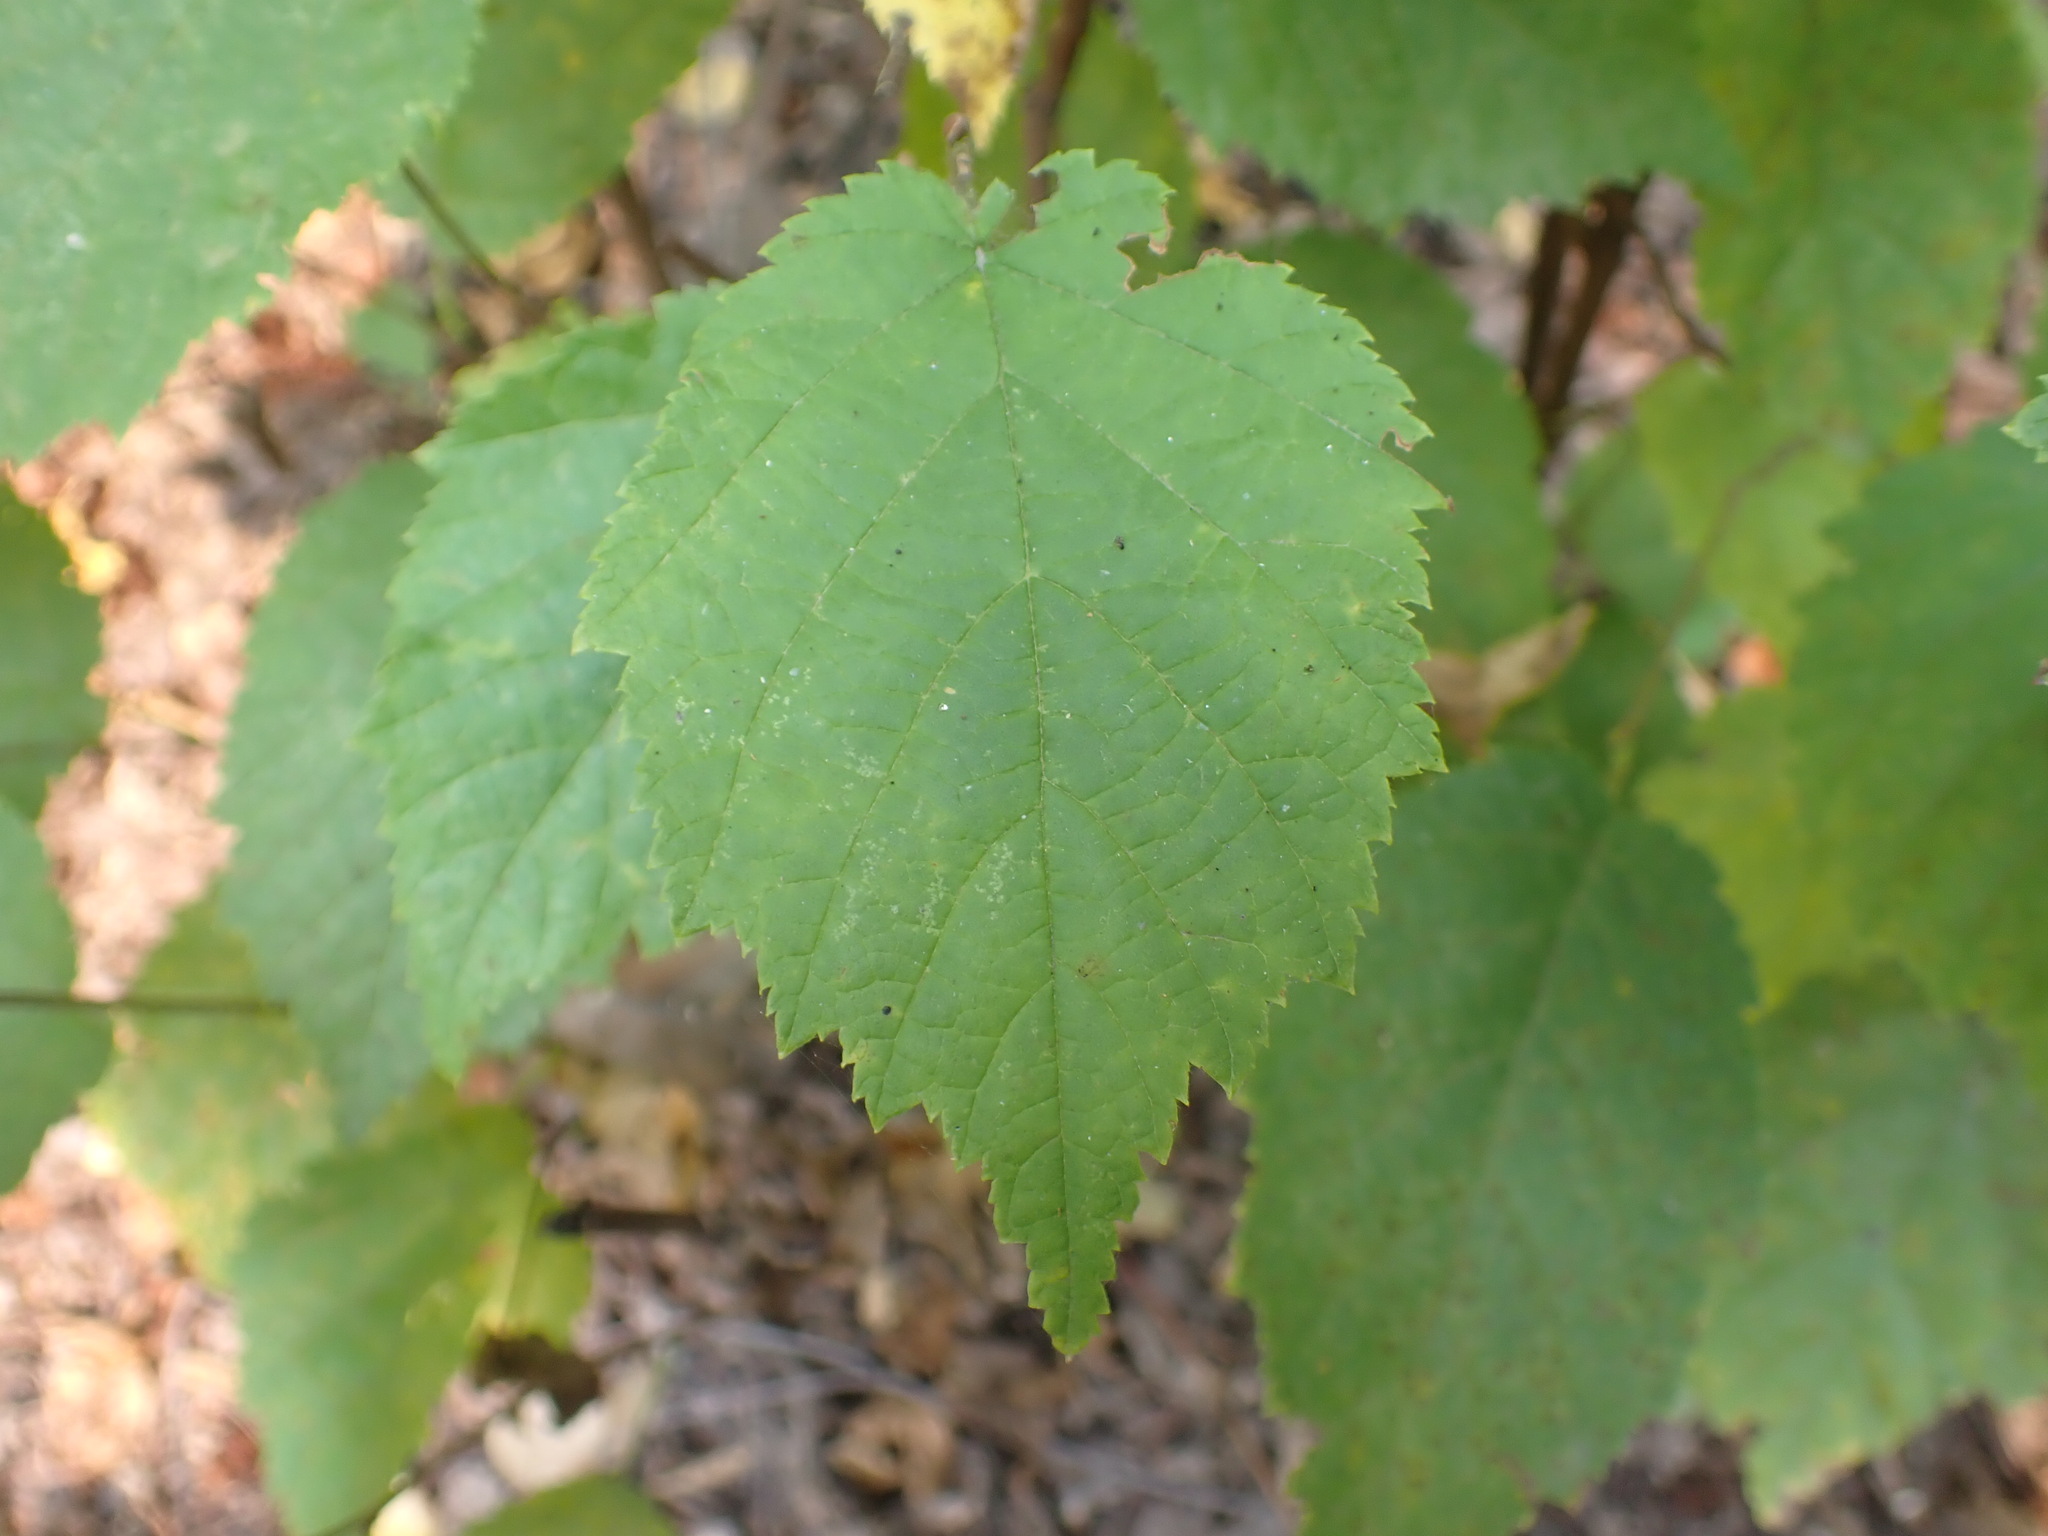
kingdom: Plantae
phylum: Tracheophyta
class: Magnoliopsida
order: Fagales
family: Betulaceae
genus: Corylus
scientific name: Corylus cornuta
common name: Beaked hazel
